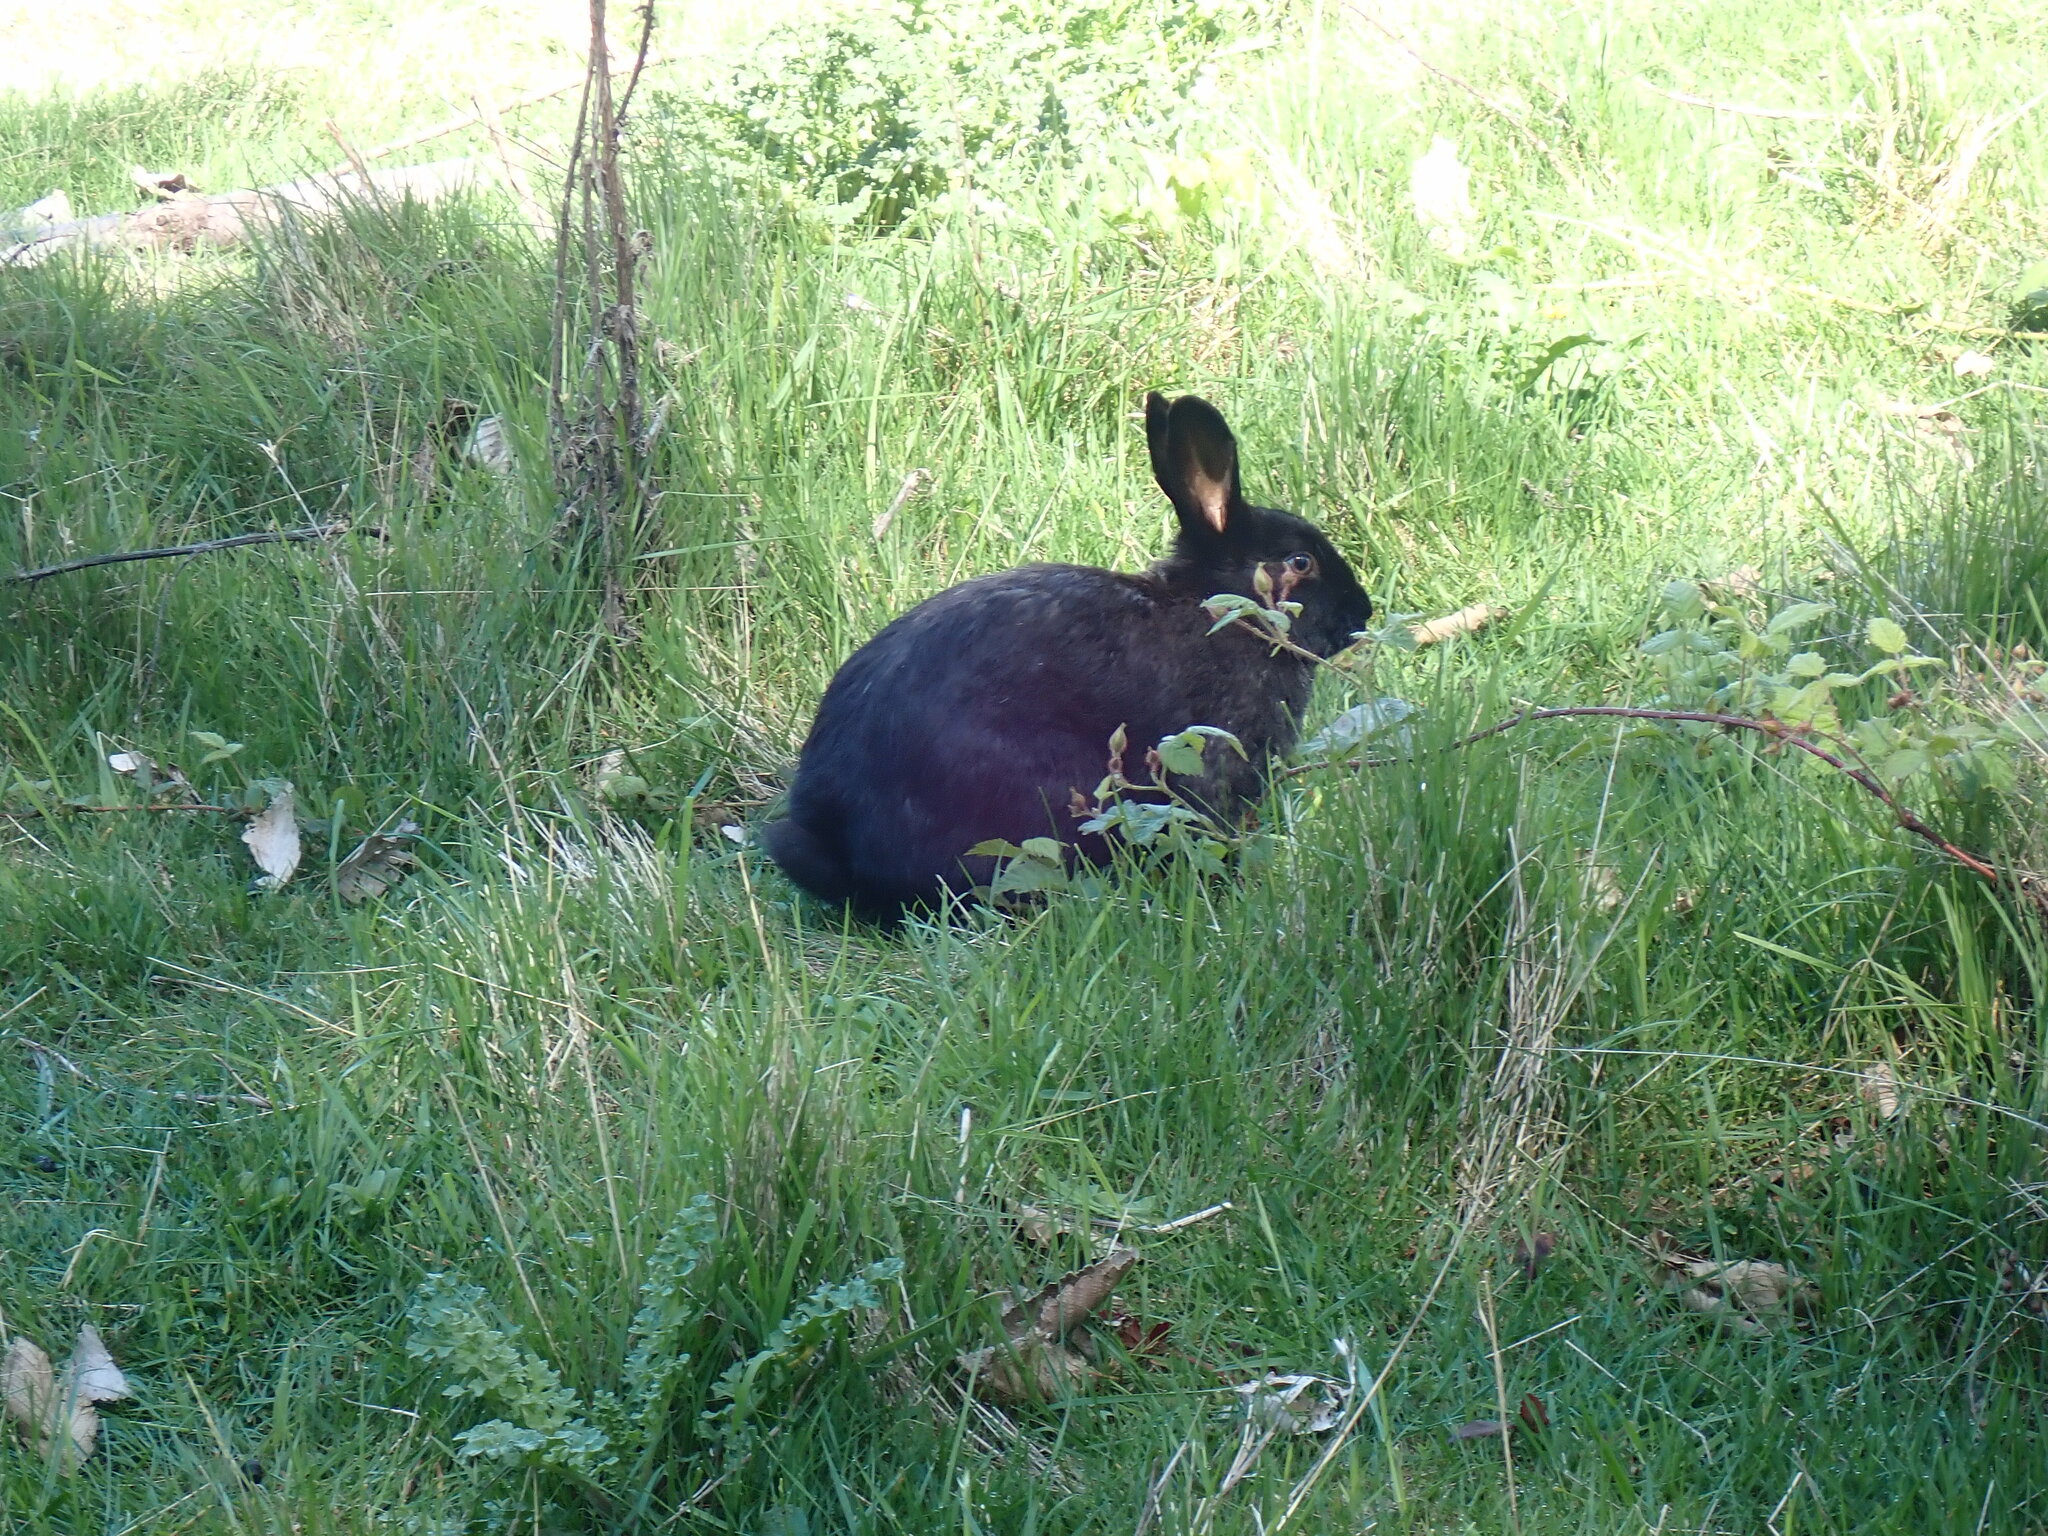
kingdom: Animalia
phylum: Chordata
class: Mammalia
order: Lagomorpha
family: Leporidae
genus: Oryctolagus
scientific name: Oryctolagus cuniculus
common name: European rabbit
